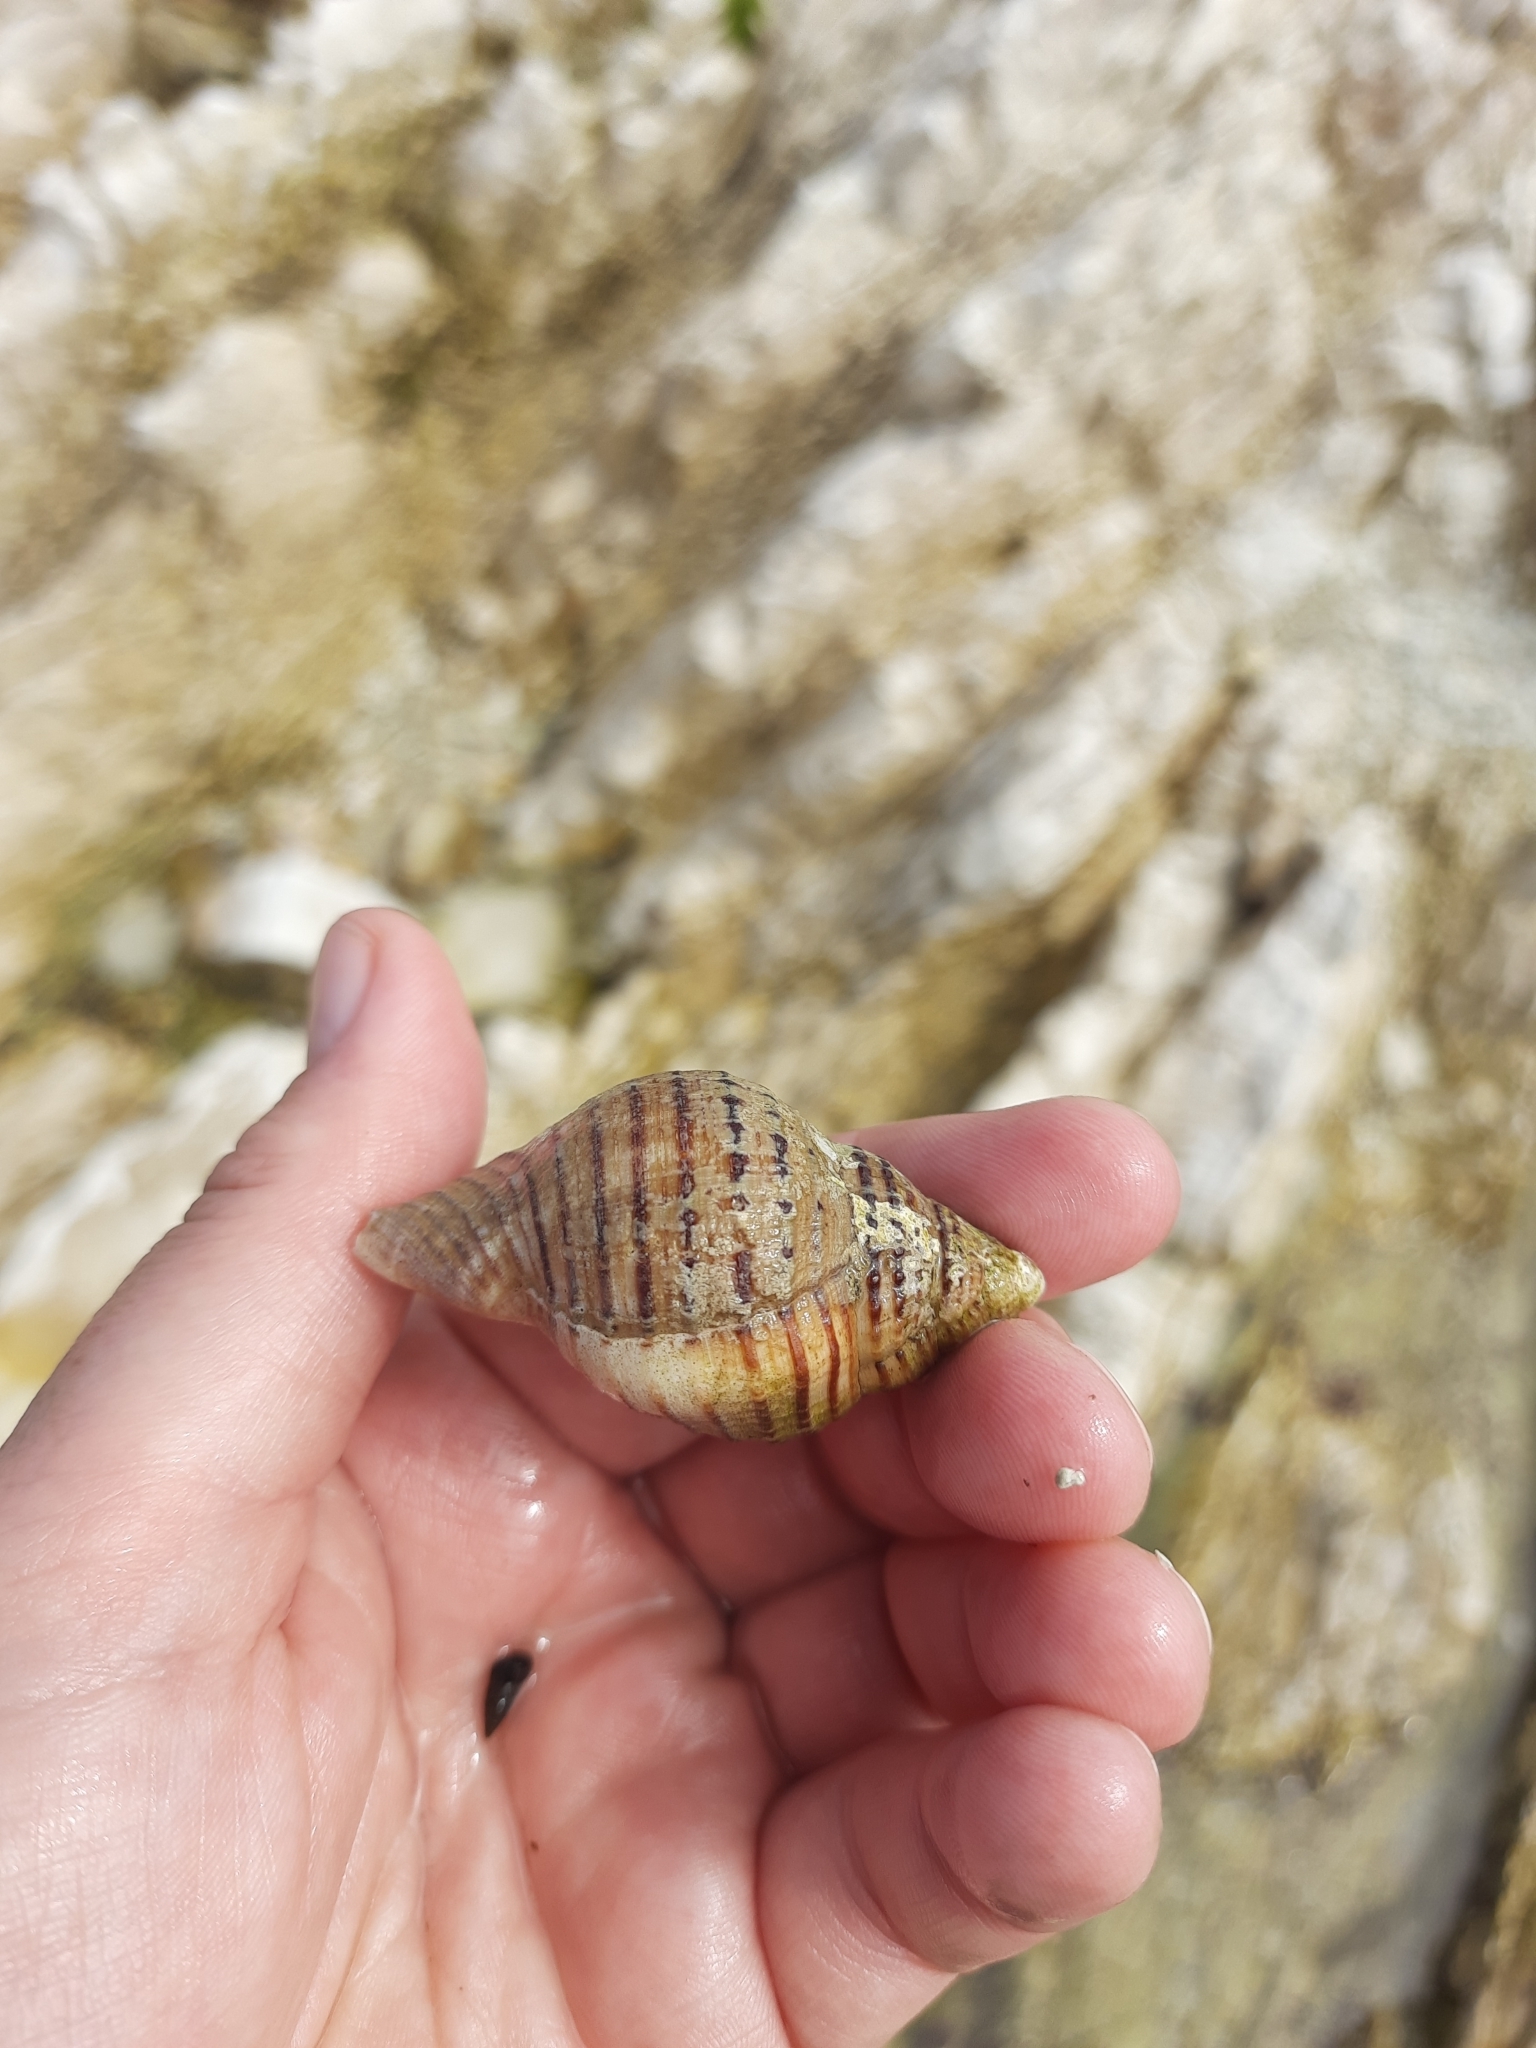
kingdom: Animalia
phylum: Mollusca
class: Gastropoda
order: Littorinimorpha
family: Cymatiidae
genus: Argobuccinum
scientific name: Argobuccinum pustulosum
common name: Pustular triton
